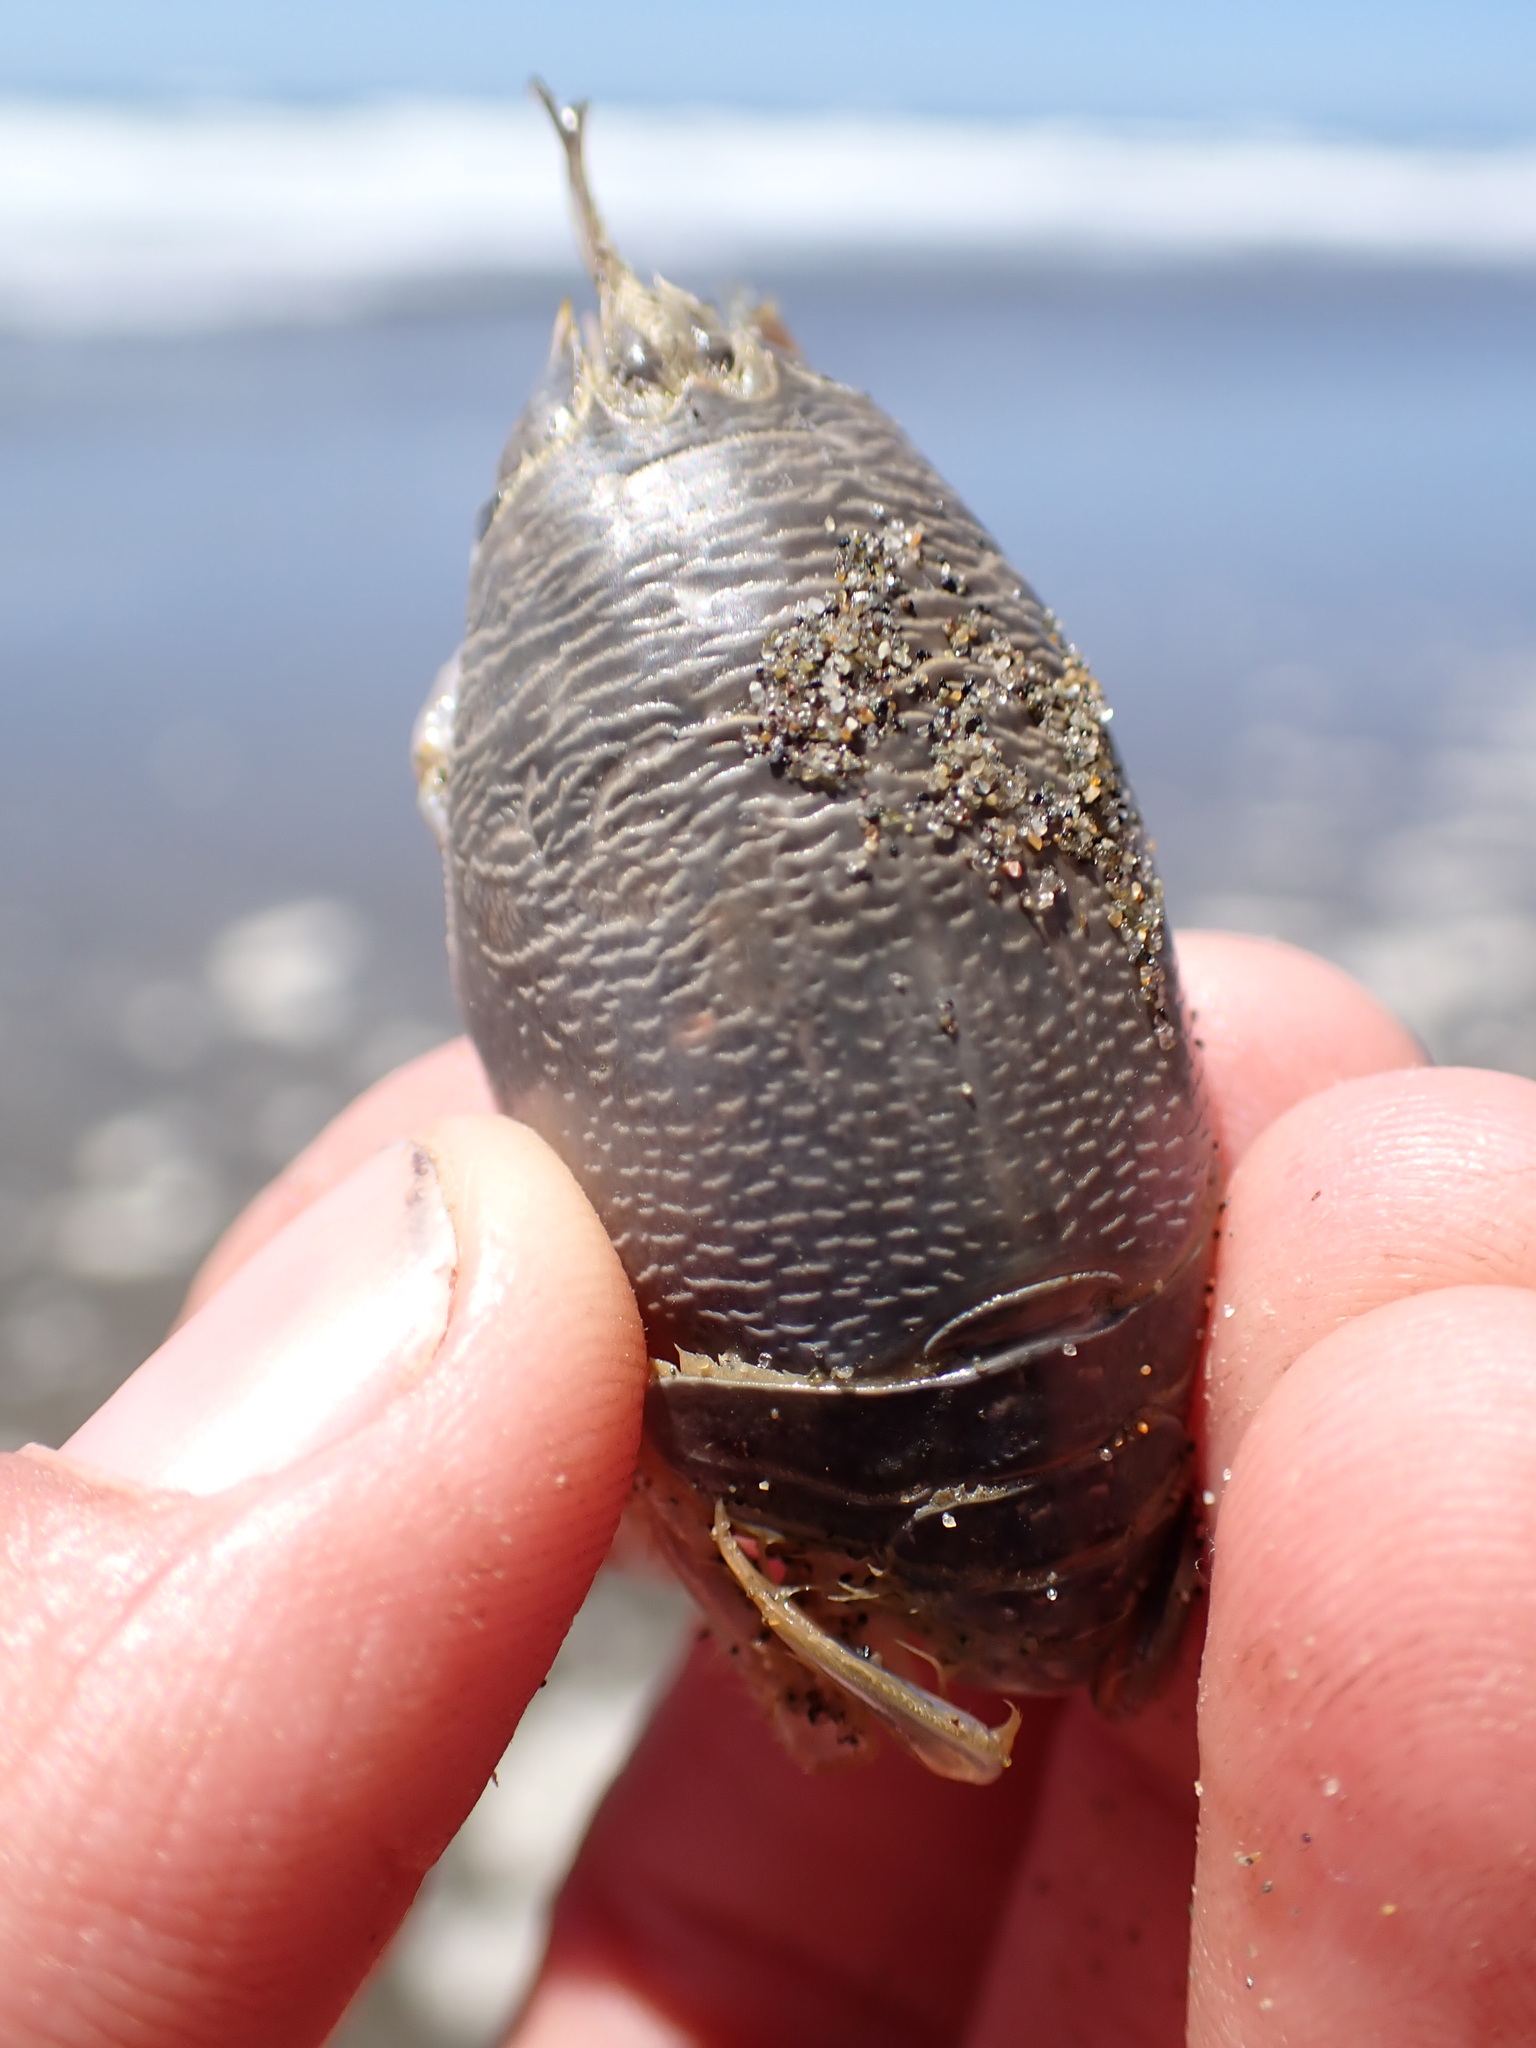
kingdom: Animalia
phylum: Arthropoda
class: Malacostraca
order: Decapoda
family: Hippidae
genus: Emerita
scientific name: Emerita analoga
